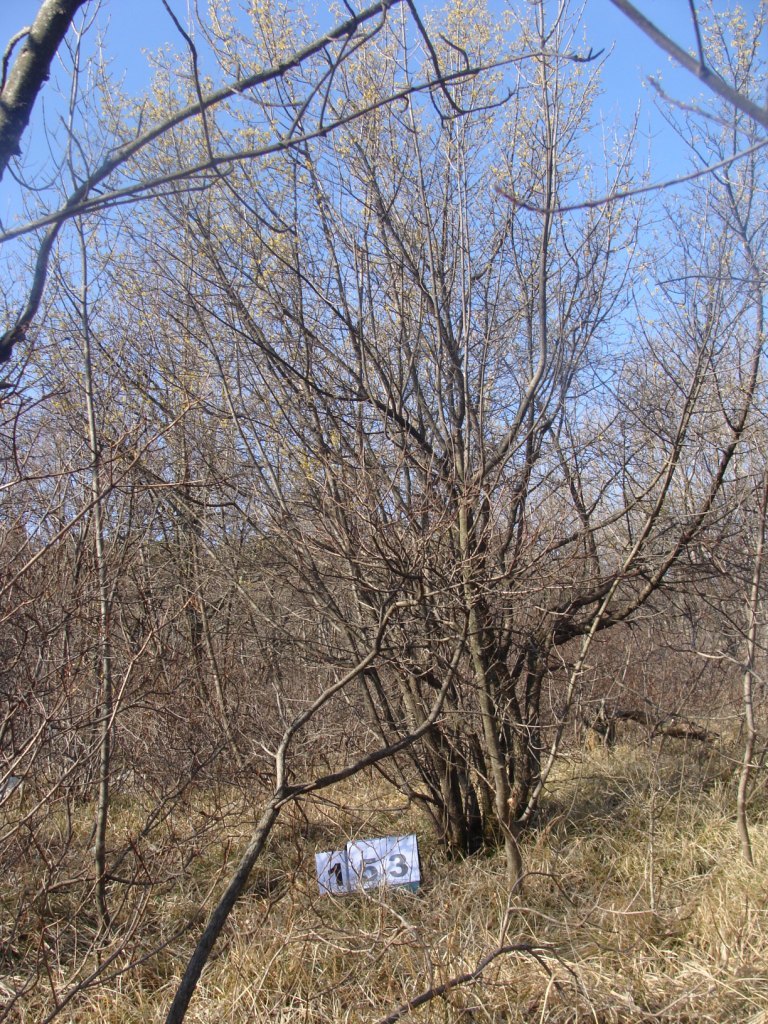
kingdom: Plantae
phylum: Tracheophyta
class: Magnoliopsida
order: Cornales
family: Cornaceae
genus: Cornus
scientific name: Cornus mas
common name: Cornelian-cherry
